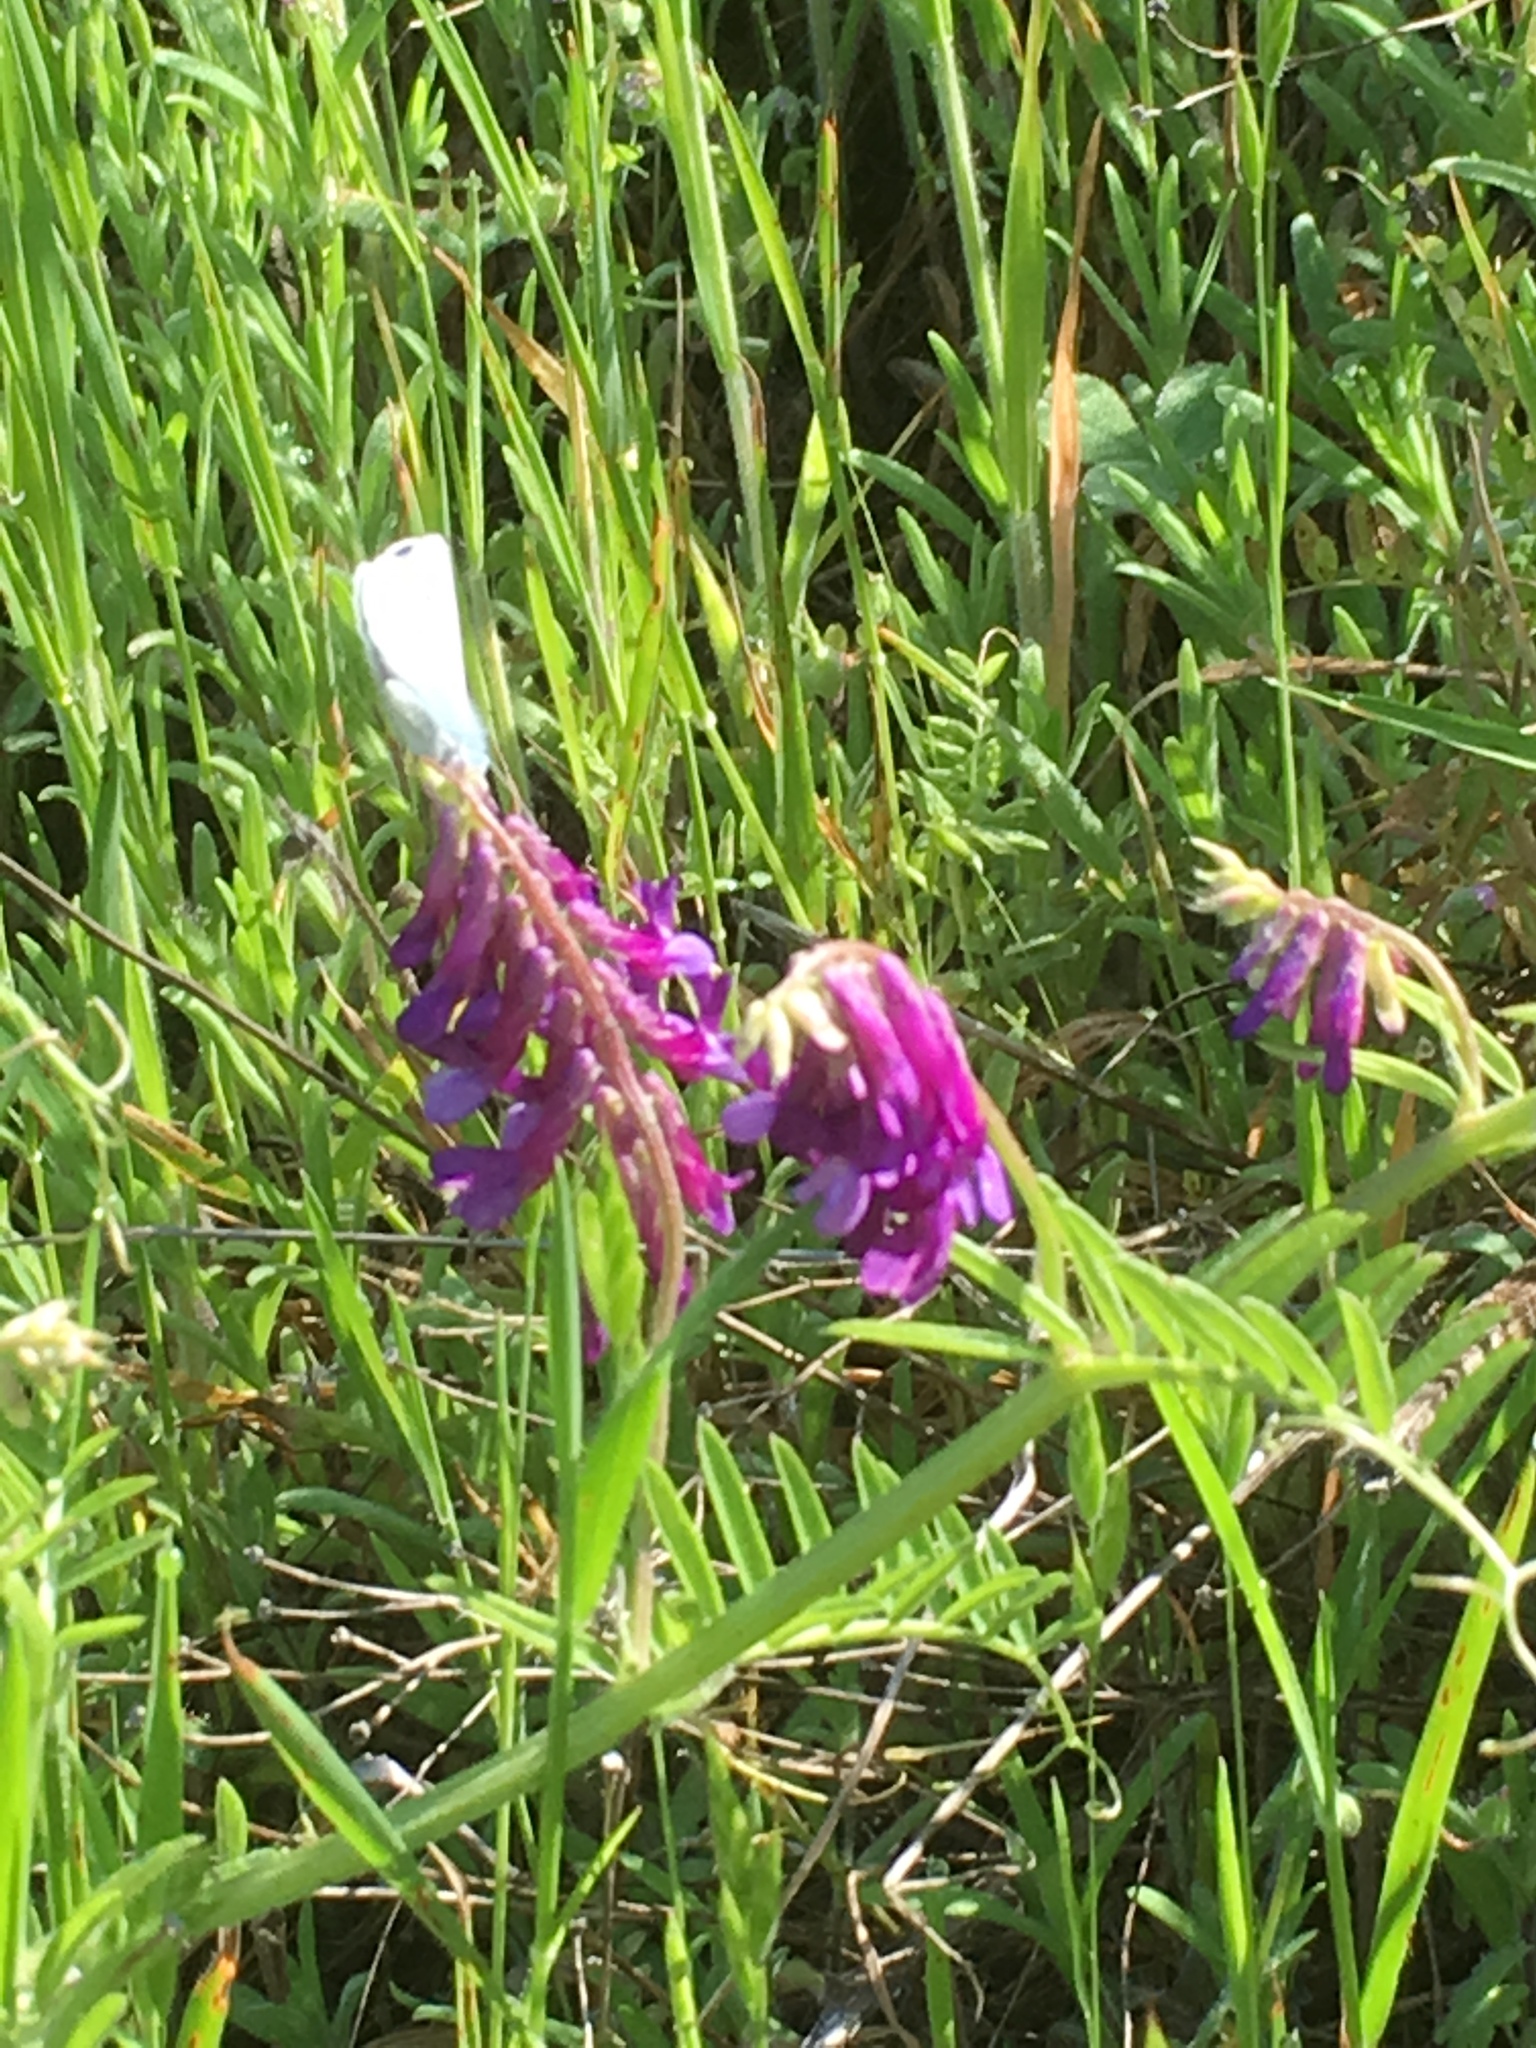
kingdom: Animalia
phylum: Arthropoda
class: Insecta
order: Lepidoptera
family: Lycaenidae
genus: Glaucopsyche
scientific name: Glaucopsyche lygdamus
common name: Silvery blue
